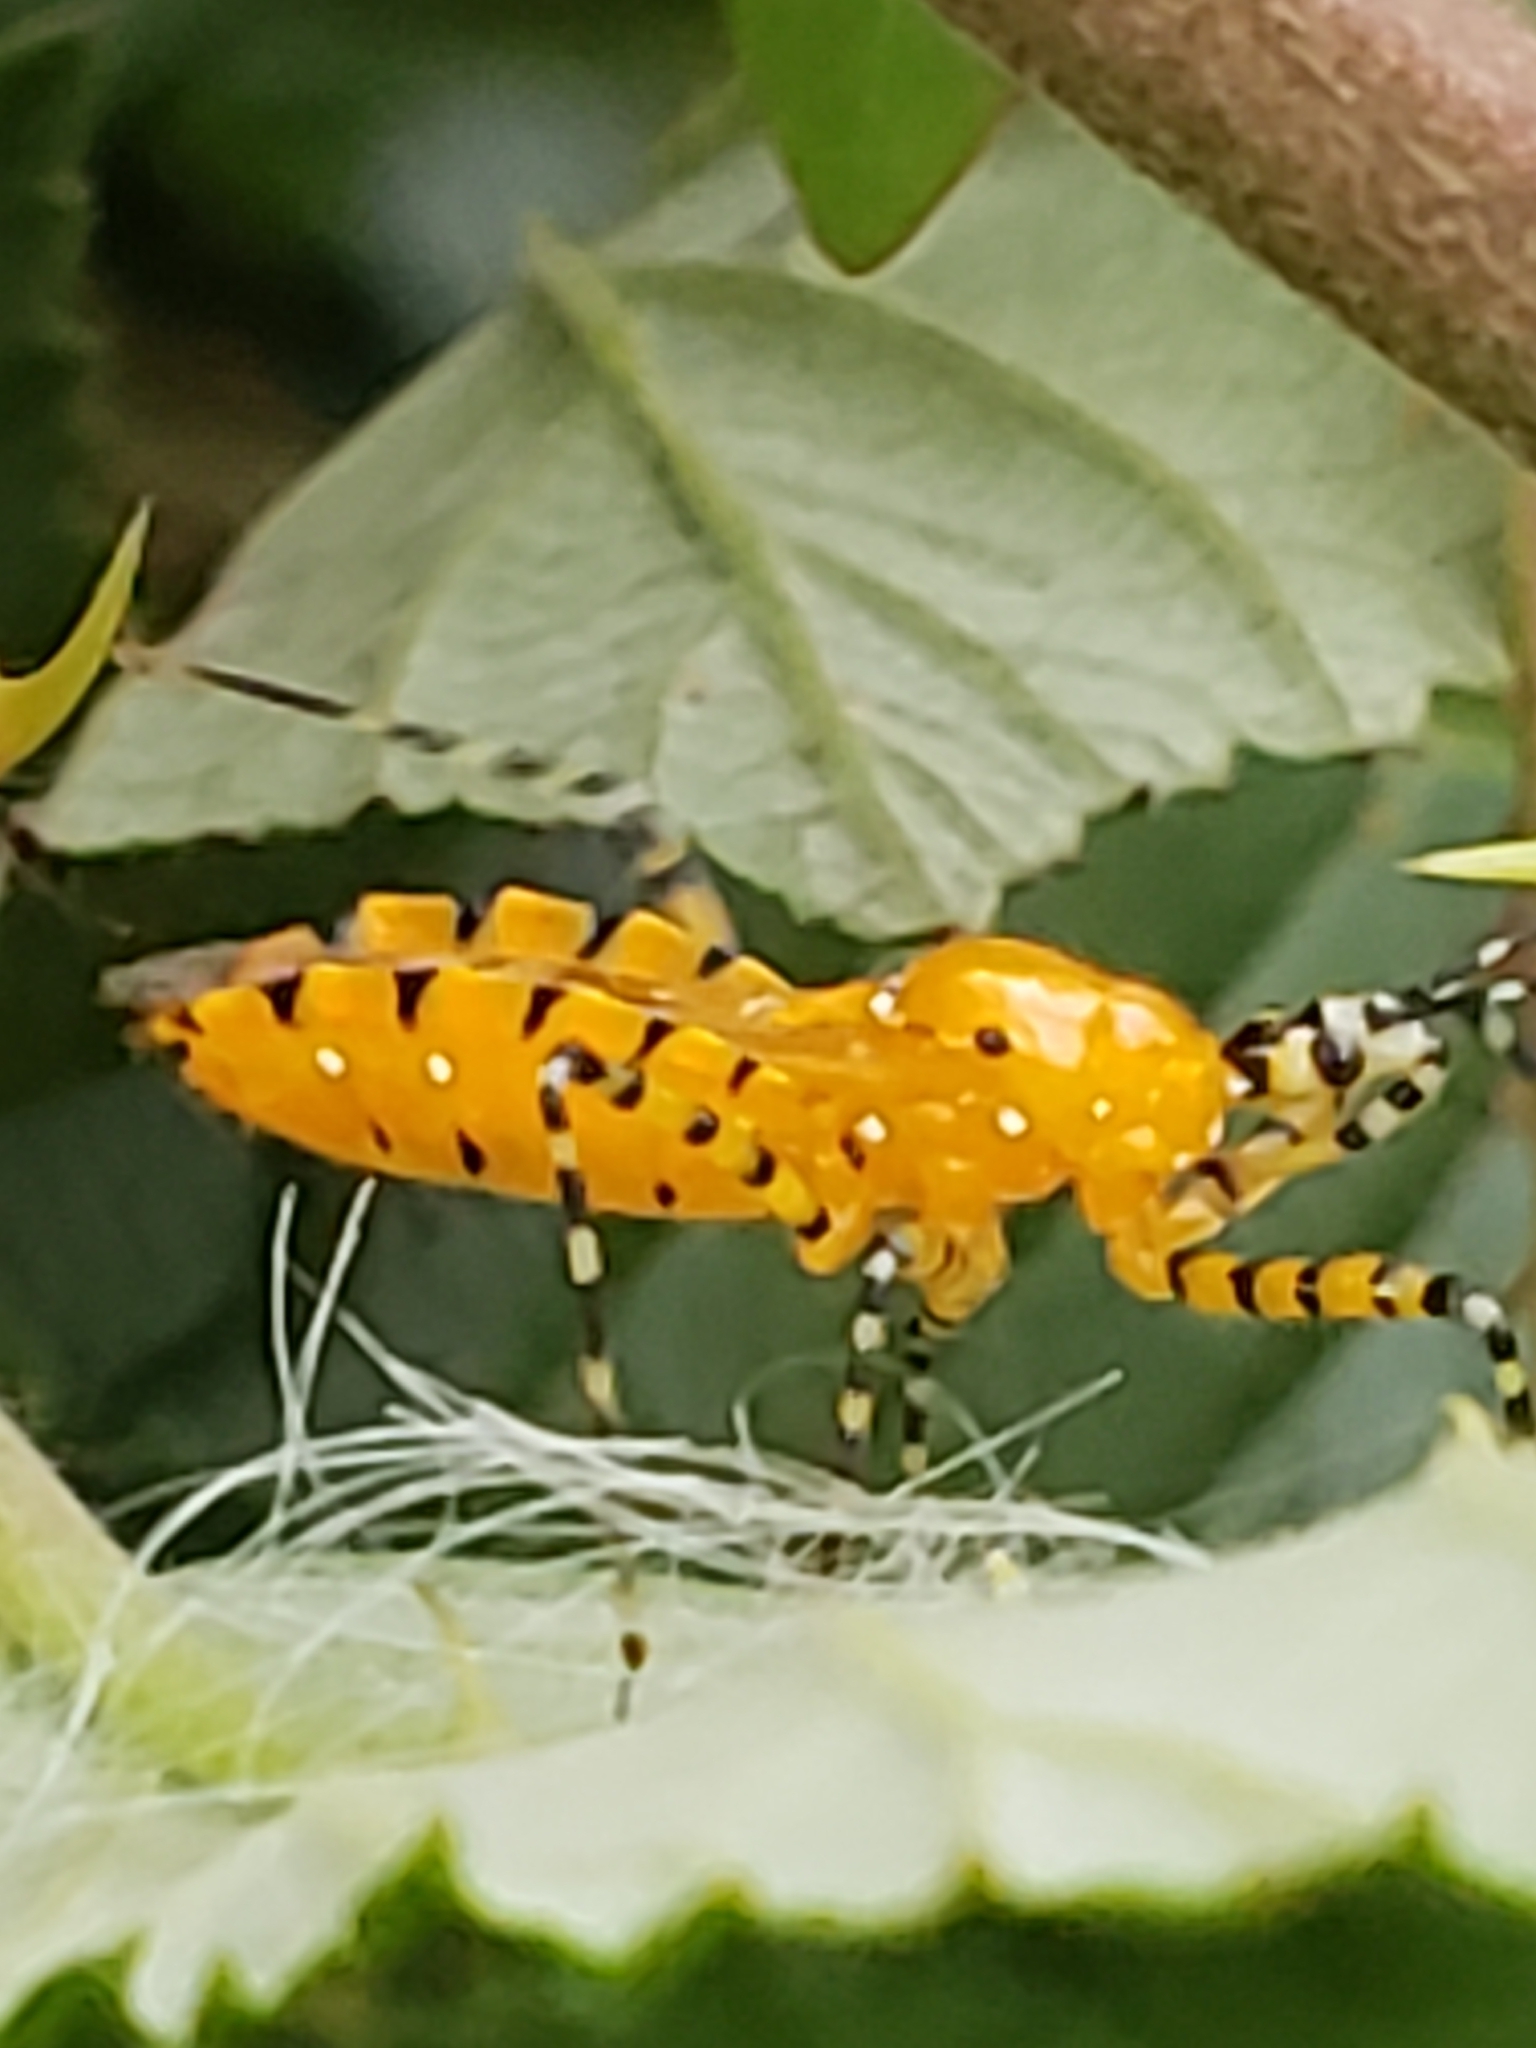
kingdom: Animalia
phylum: Arthropoda
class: Insecta
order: Hemiptera
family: Reduviidae
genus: Pselliopus
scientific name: Pselliopus barberi
